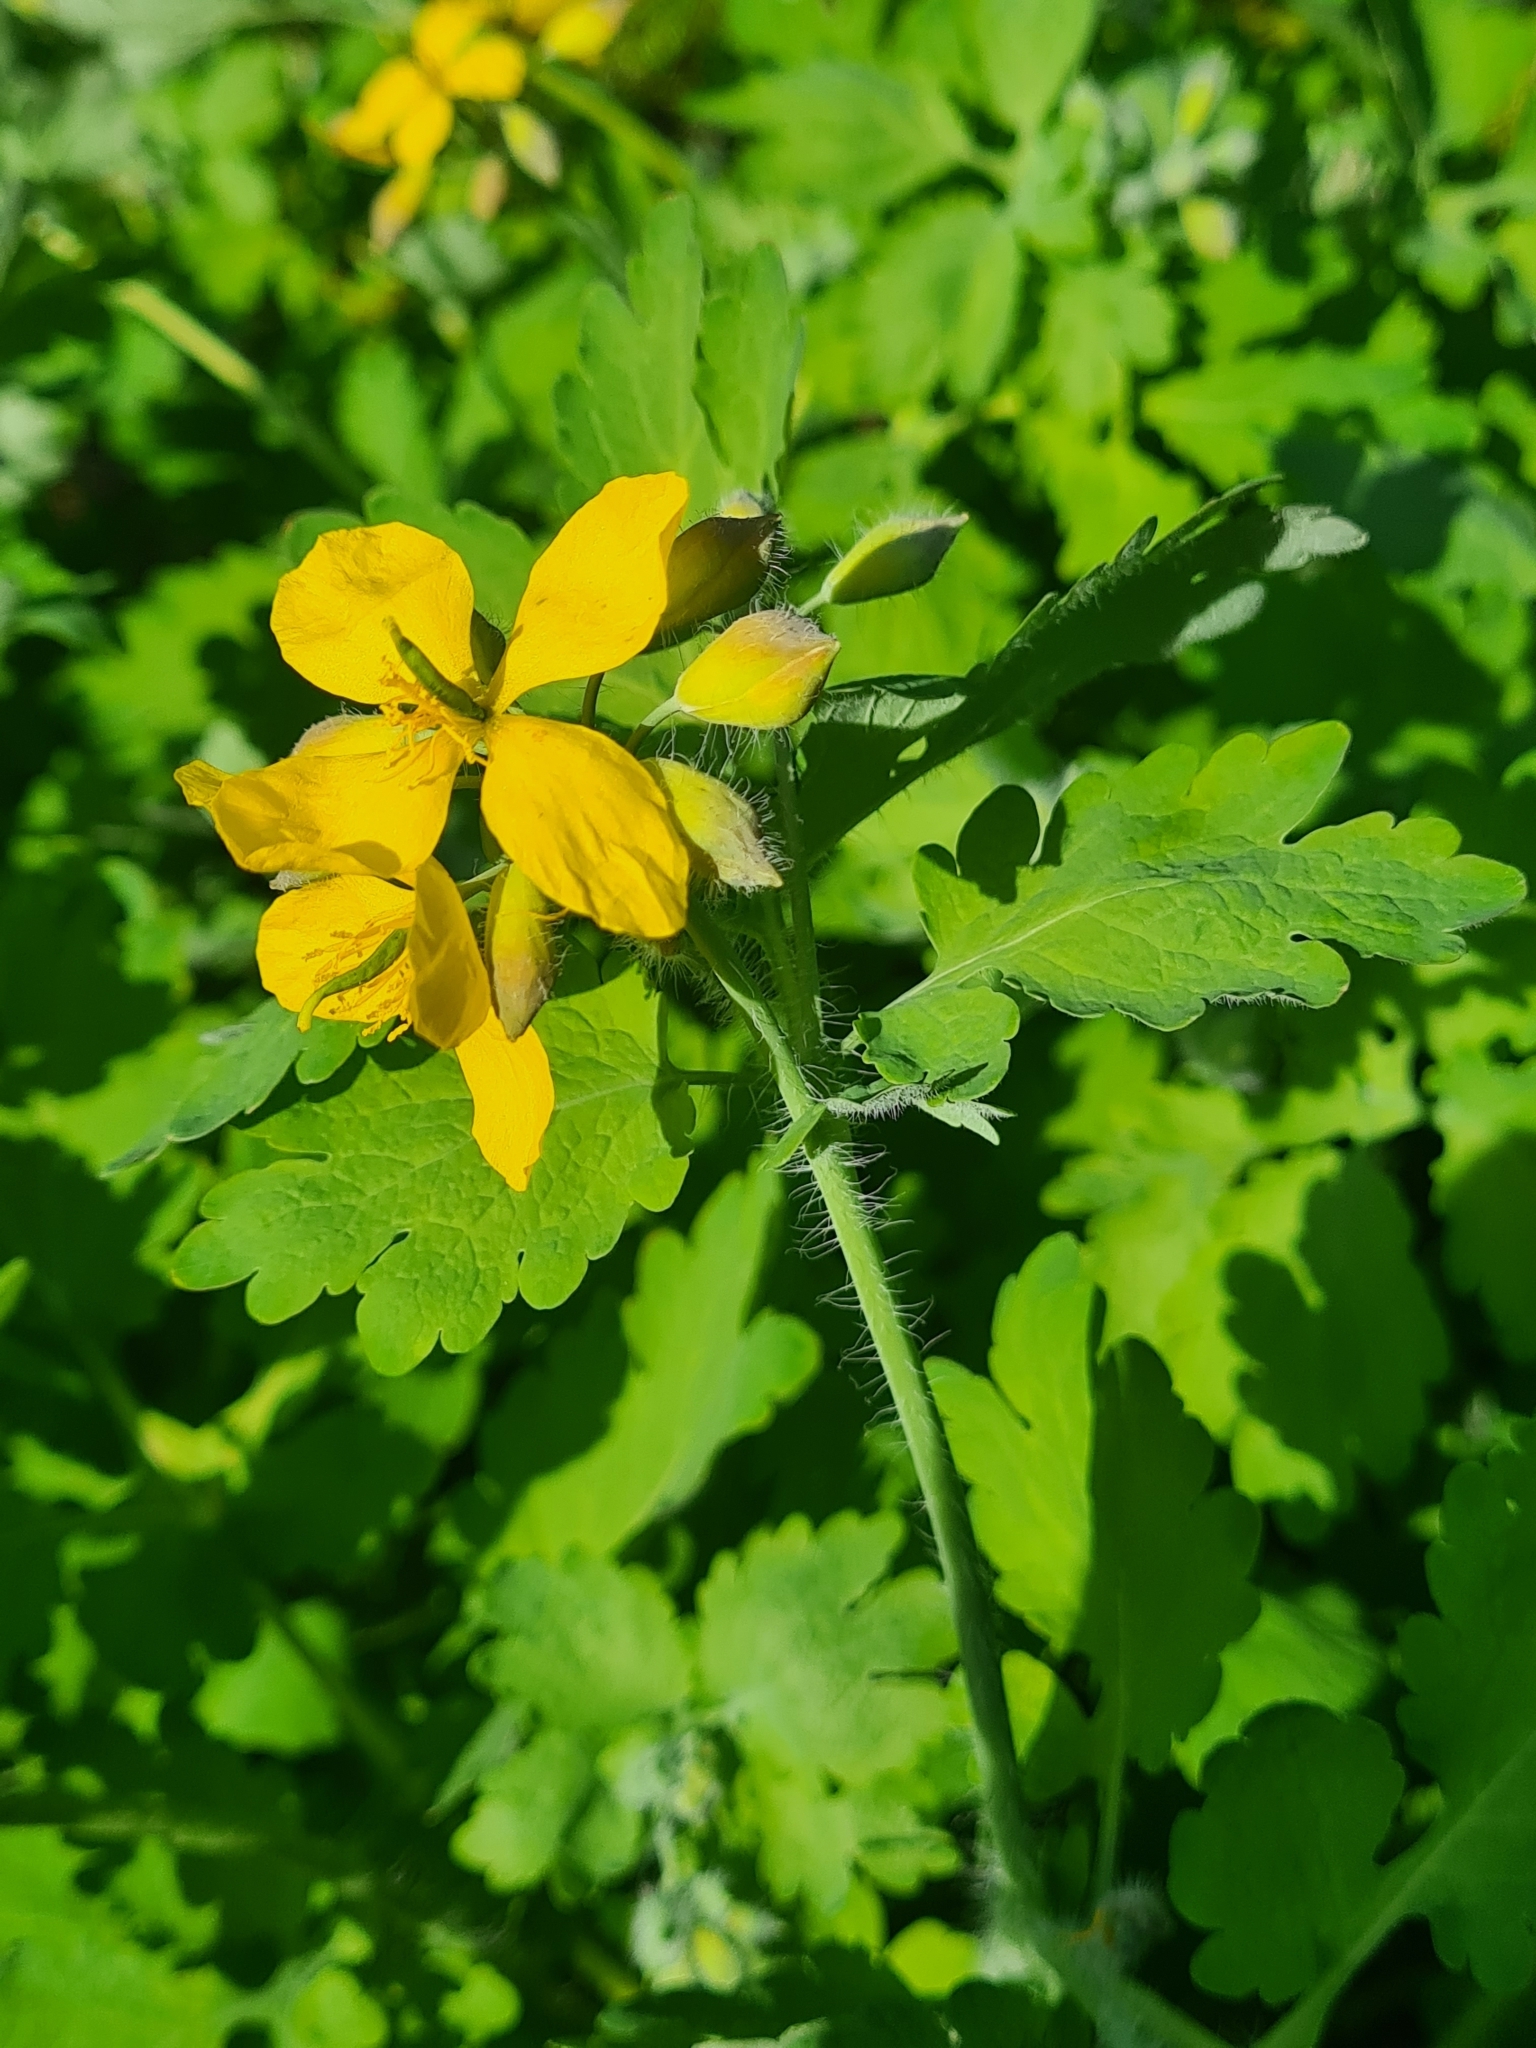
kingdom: Plantae
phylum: Tracheophyta
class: Magnoliopsida
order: Ranunculales
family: Papaveraceae
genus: Chelidonium
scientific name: Chelidonium majus
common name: Greater celandine
